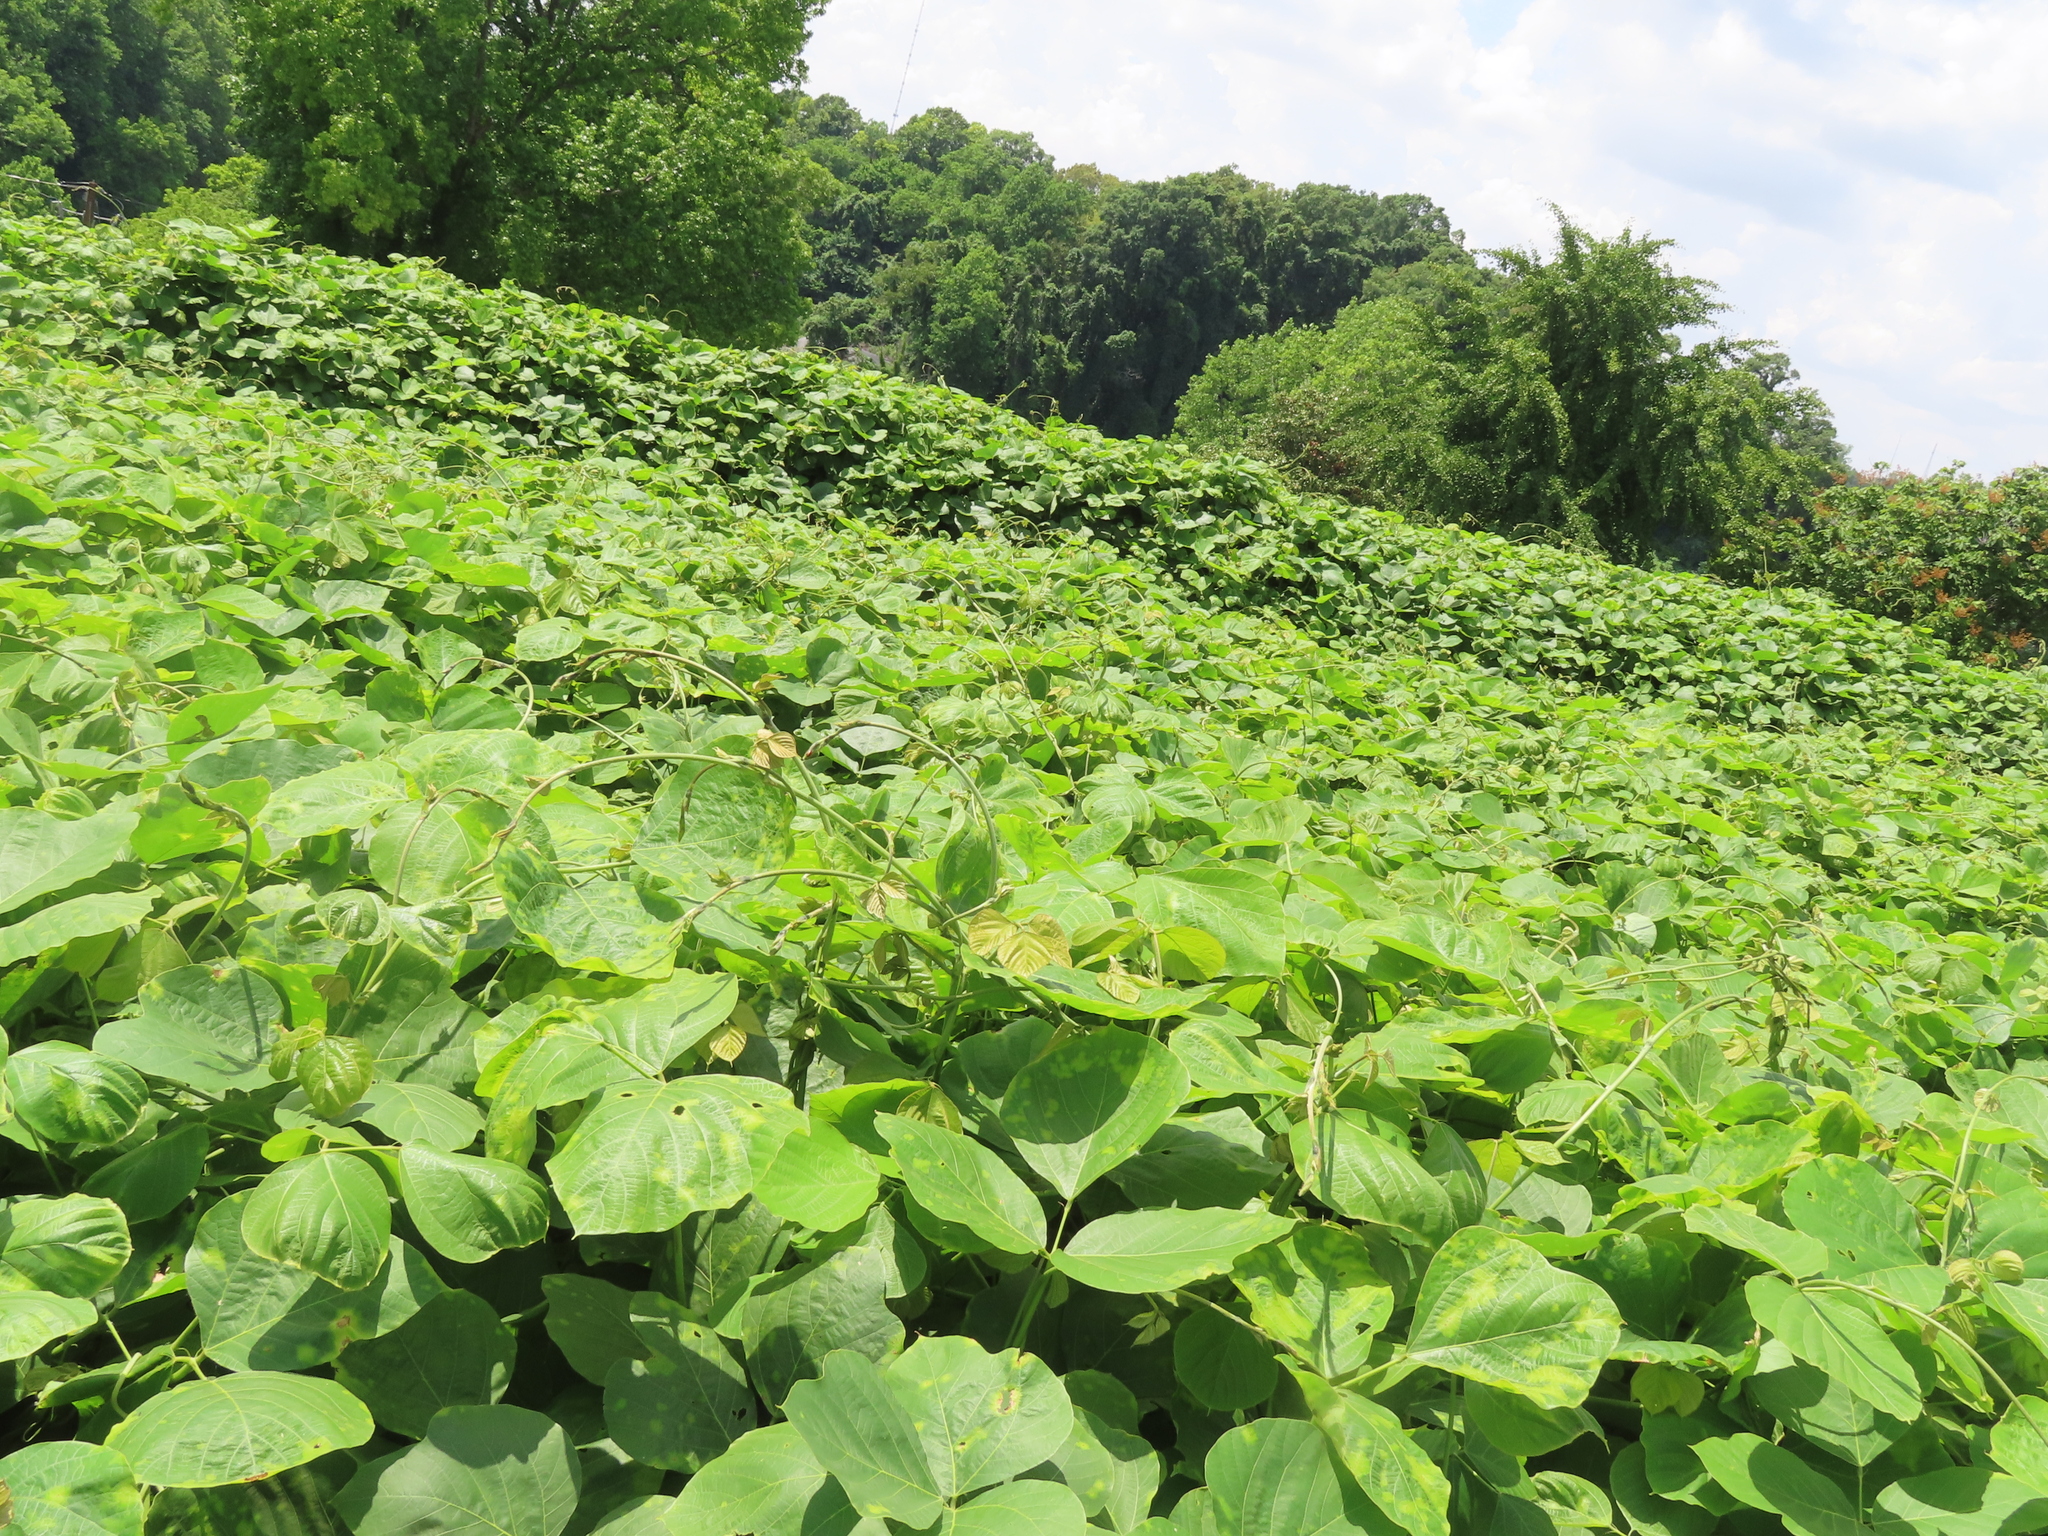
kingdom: Plantae
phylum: Tracheophyta
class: Magnoliopsida
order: Fabales
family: Fabaceae
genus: Pueraria
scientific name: Pueraria montana
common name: Kudzu
